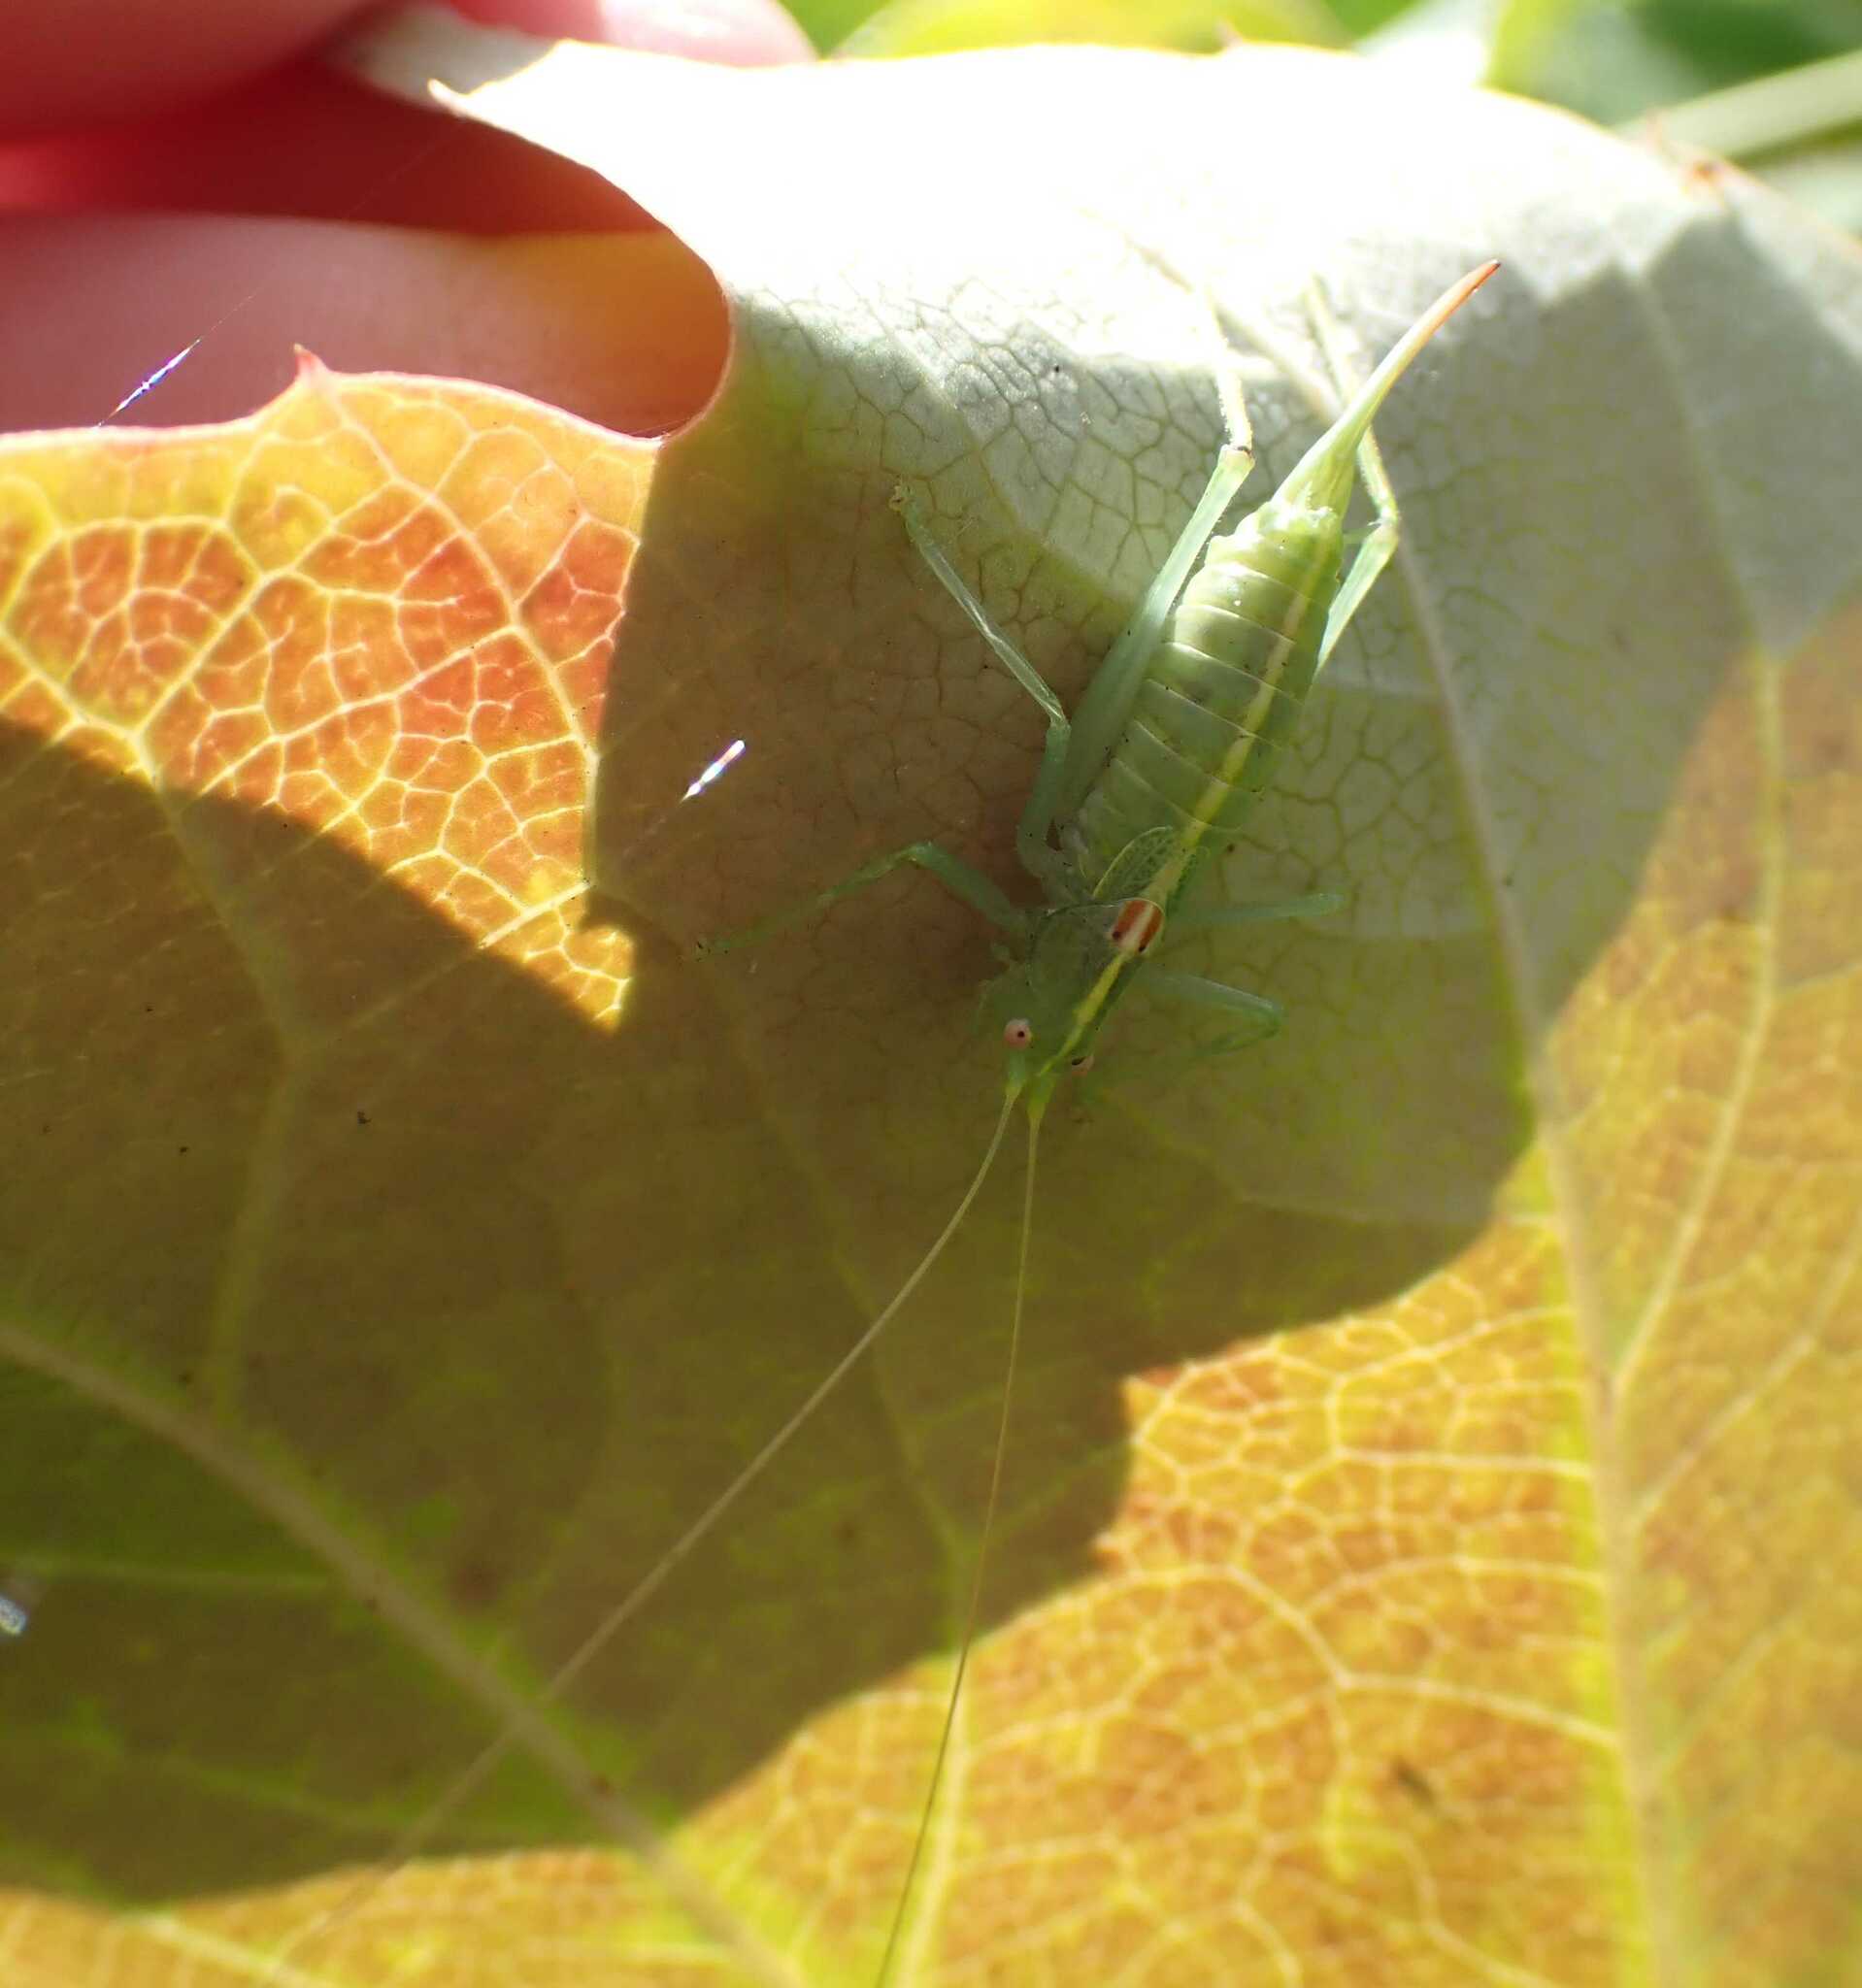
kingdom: Animalia
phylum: Arthropoda
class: Insecta
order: Orthoptera
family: Tettigoniidae
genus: Meconema
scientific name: Meconema meridionale
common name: Southern oak bush-cricket
